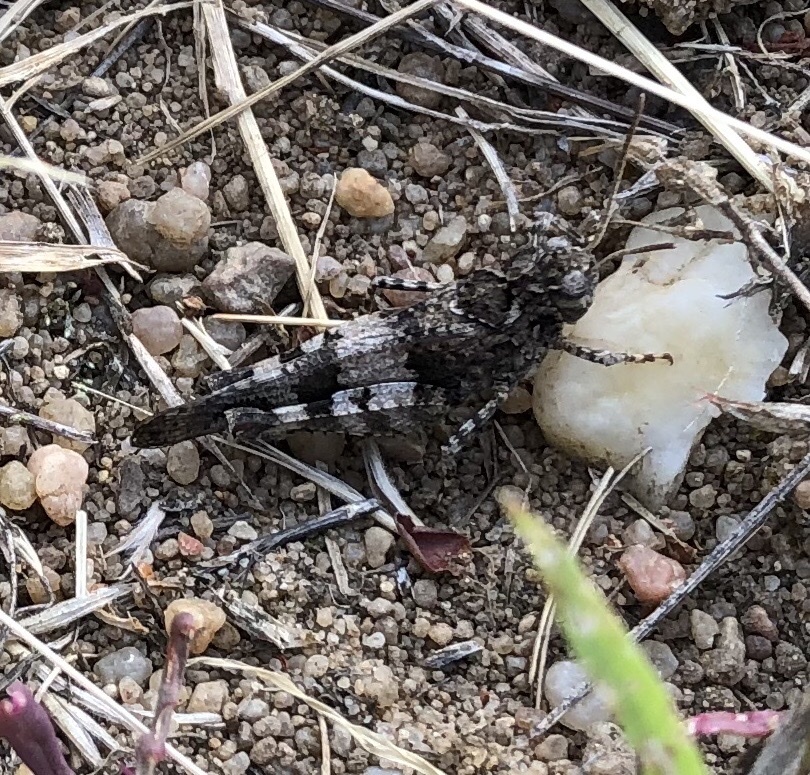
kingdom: Animalia
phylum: Arthropoda
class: Insecta
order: Orthoptera
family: Acrididae
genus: Oedipoda
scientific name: Oedipoda caerulescens
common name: Blue-winged grasshopper
